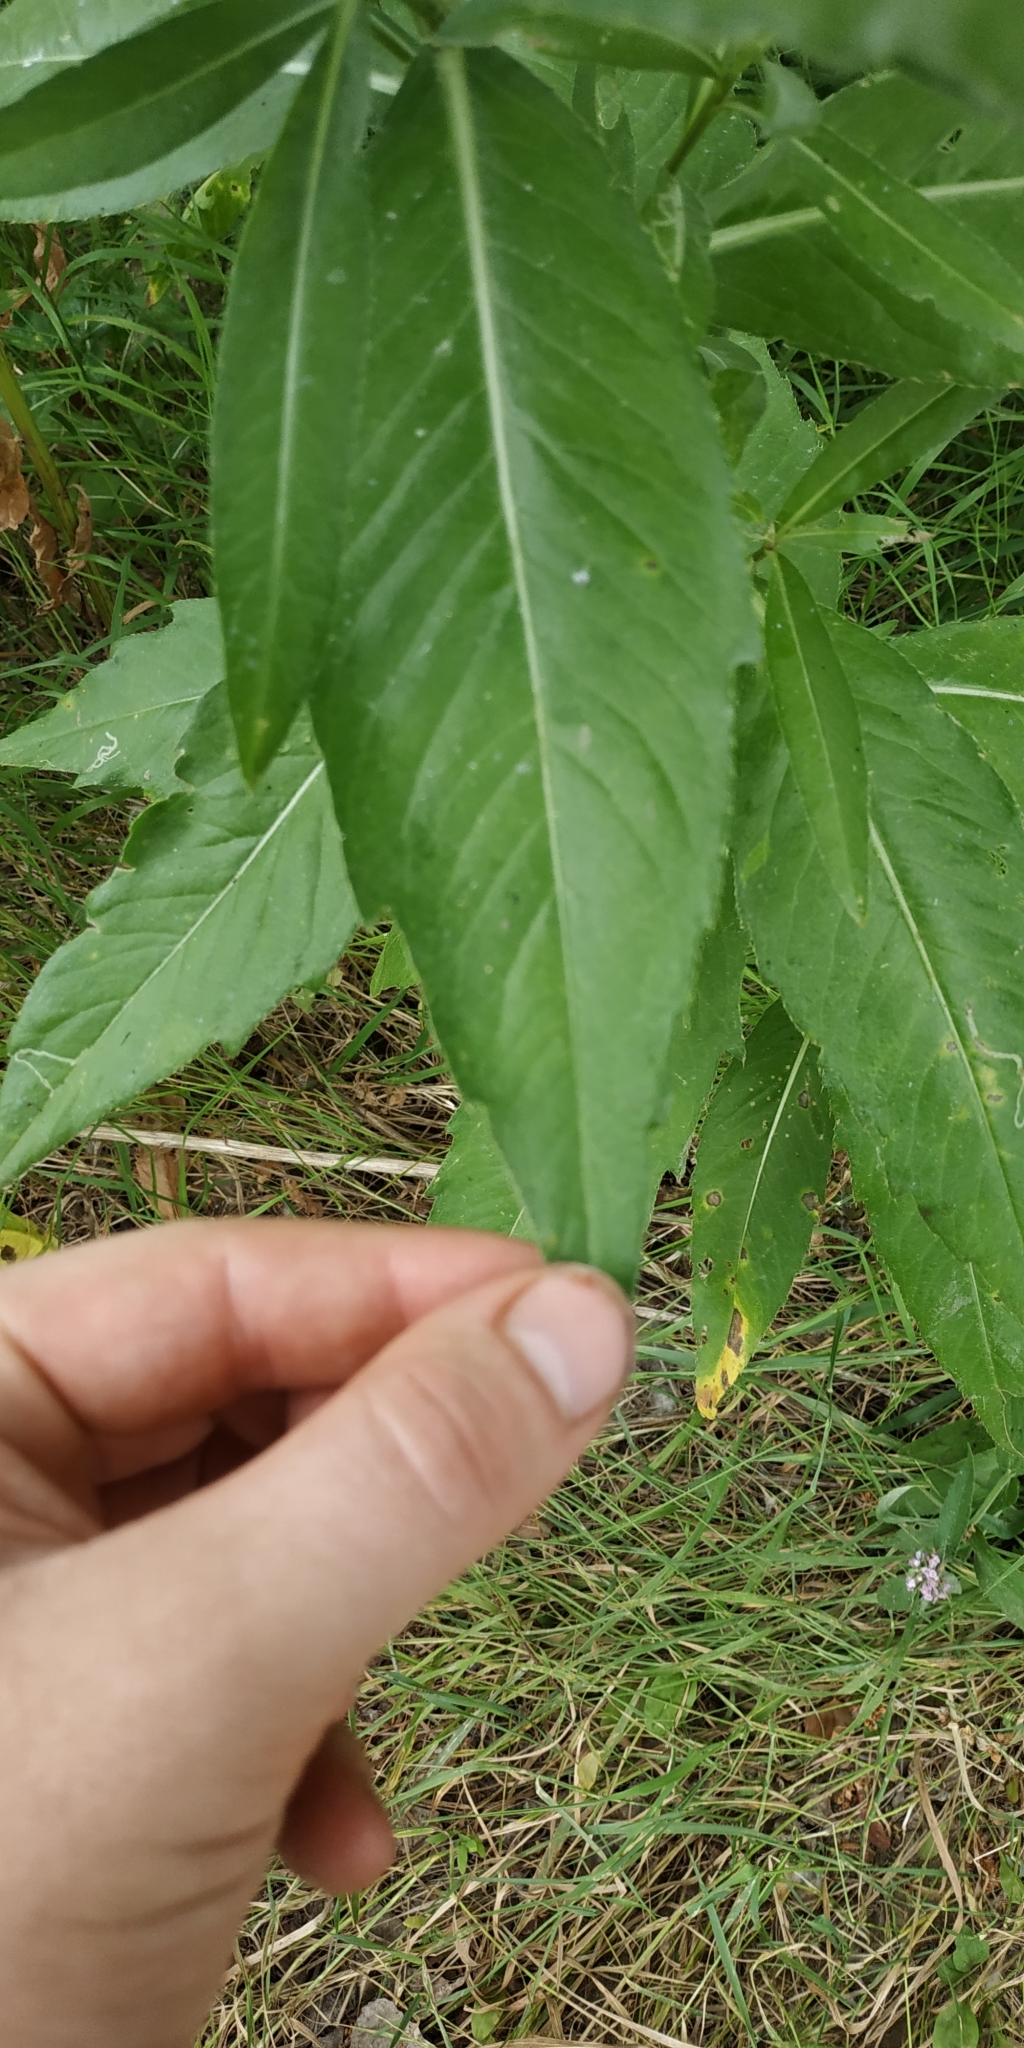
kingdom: Plantae
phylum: Tracheophyta
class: Magnoliopsida
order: Asterales
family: Asteraceae
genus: Cirsium
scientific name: Cirsium arvense
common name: Creeping thistle
